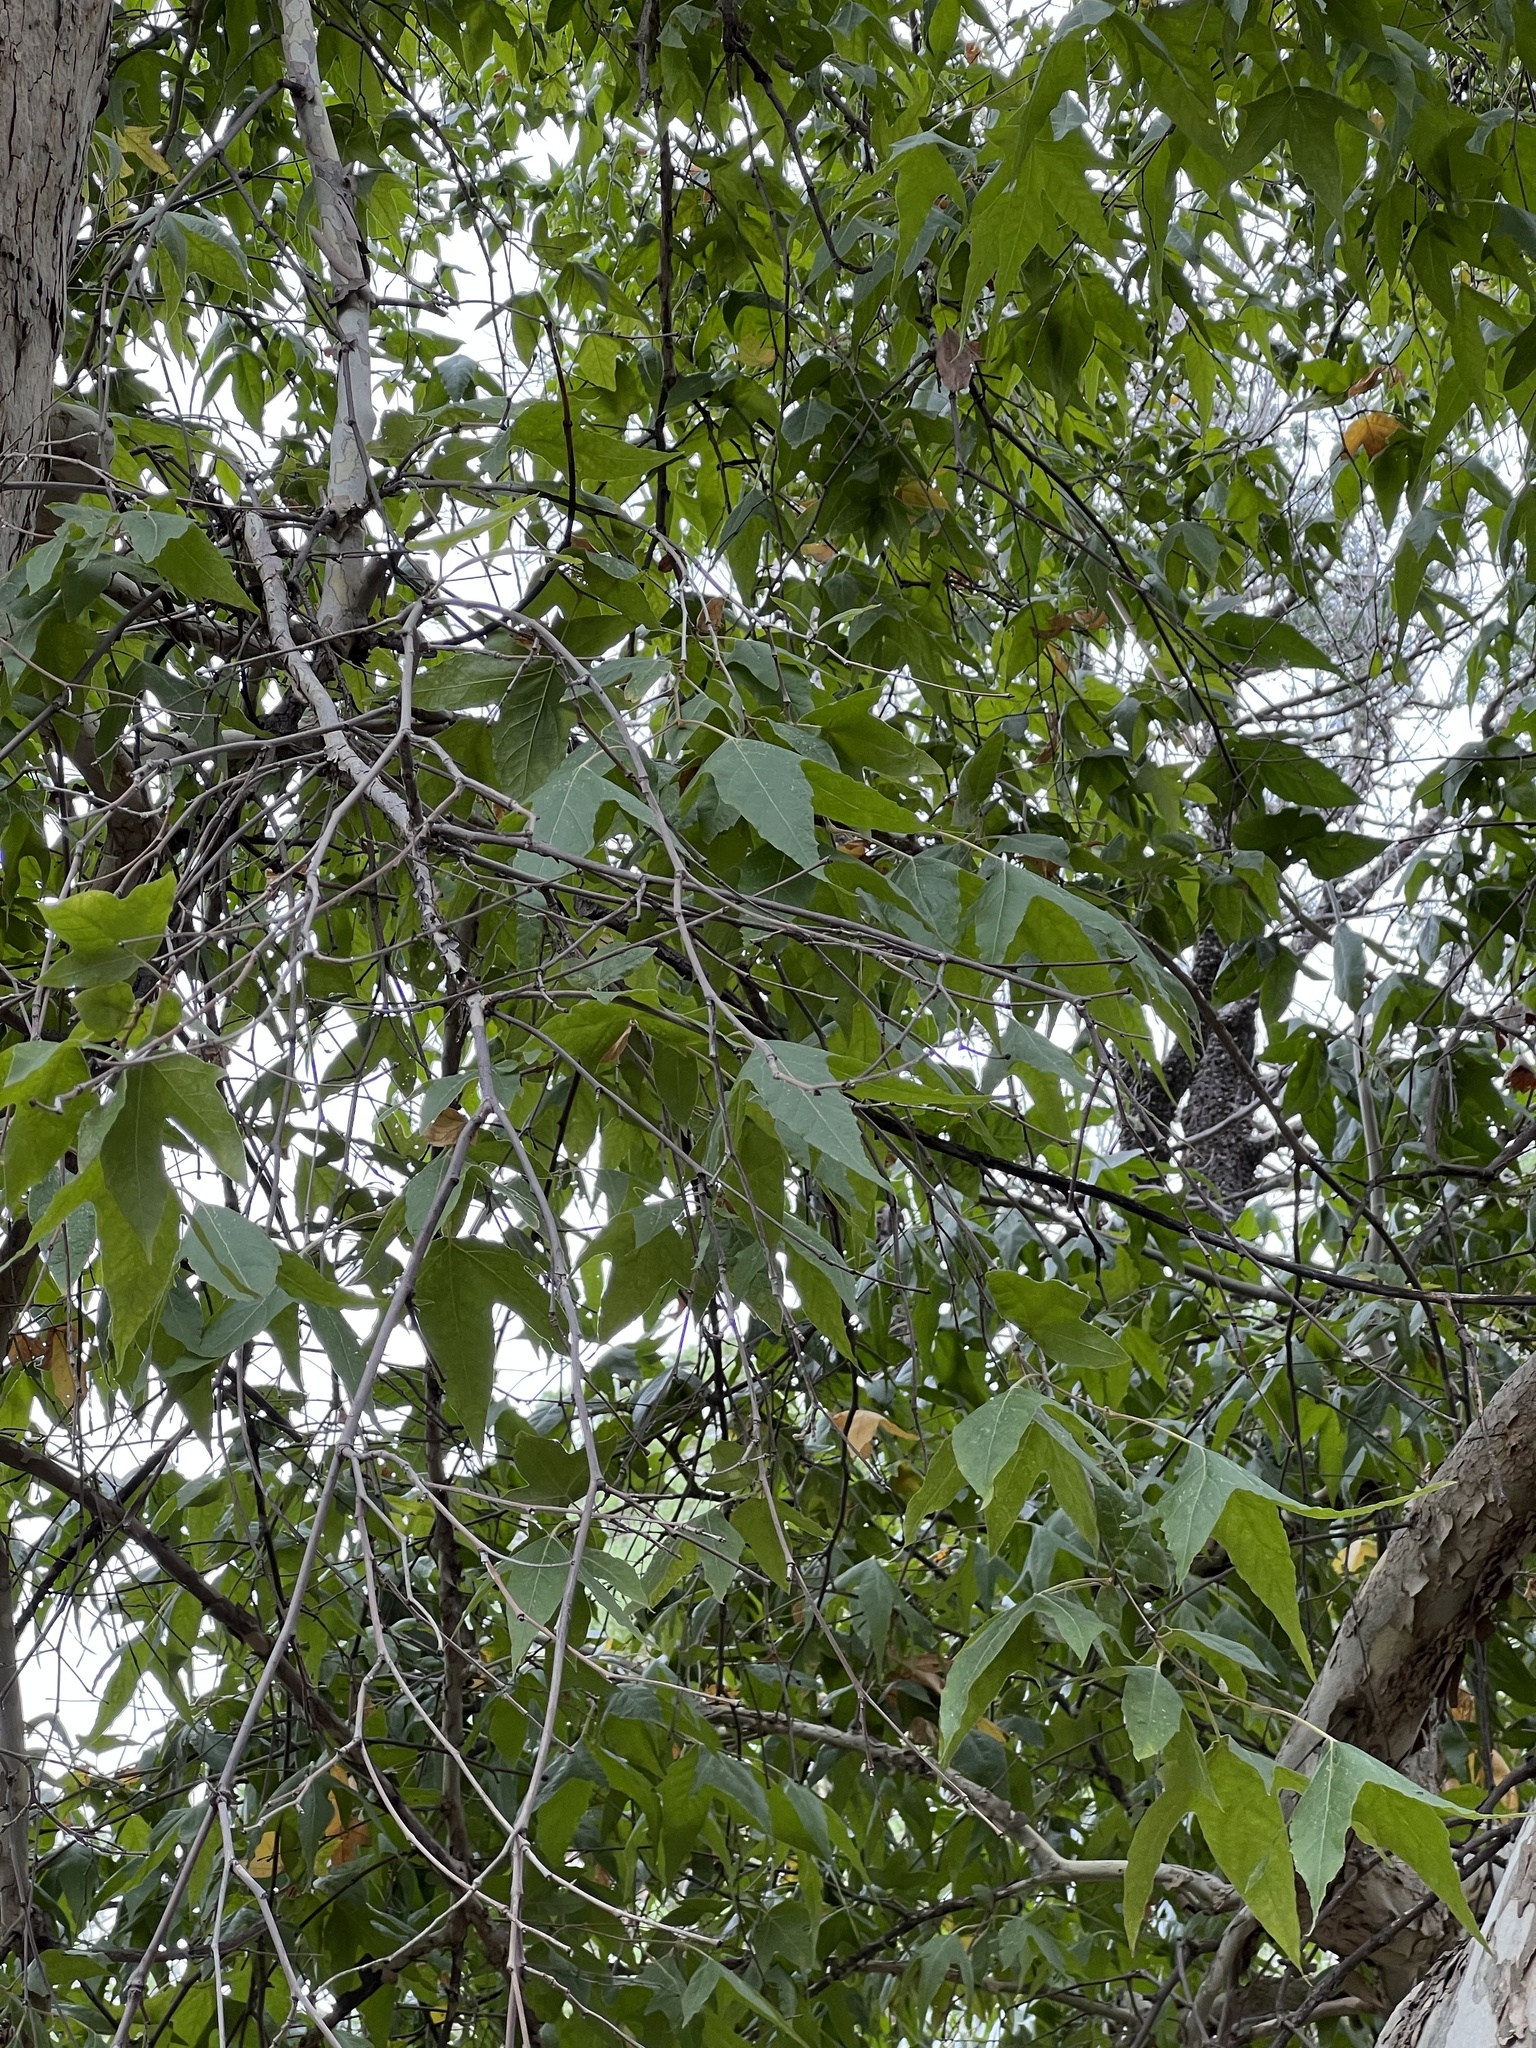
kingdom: Plantae
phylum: Tracheophyta
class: Magnoliopsida
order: Proteales
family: Platanaceae
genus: Platanus
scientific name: Platanus wrightii
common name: Arizona sycamore
